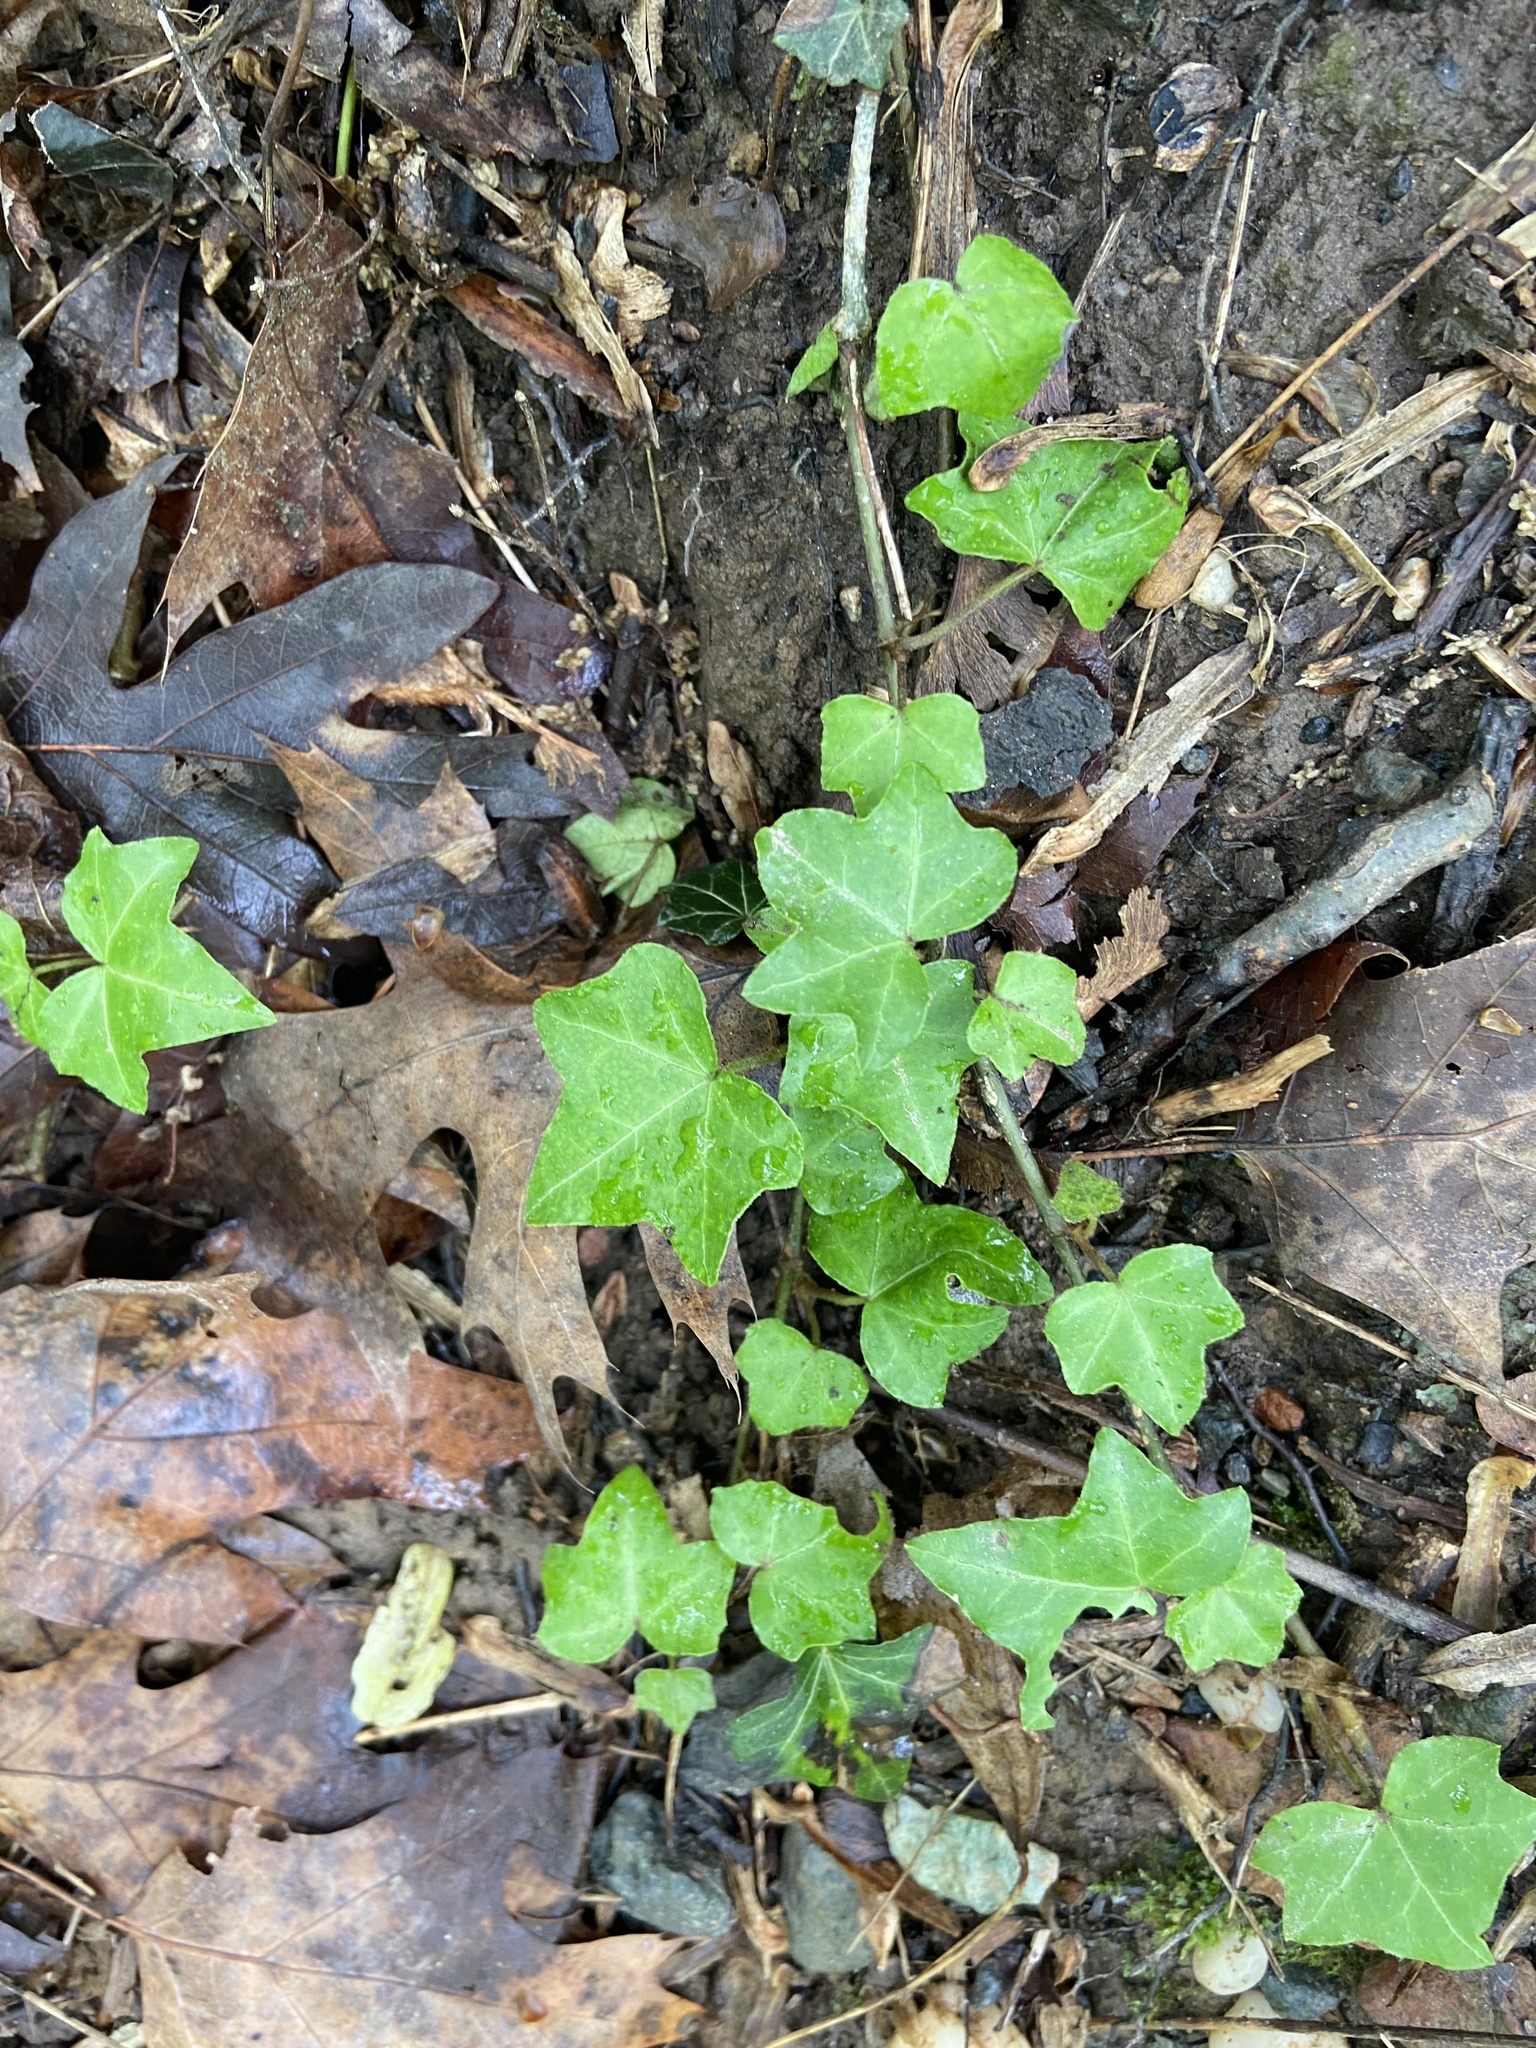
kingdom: Plantae
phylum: Tracheophyta
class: Magnoliopsida
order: Apiales
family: Araliaceae
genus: Hedera
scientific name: Hedera helix
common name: Ivy
